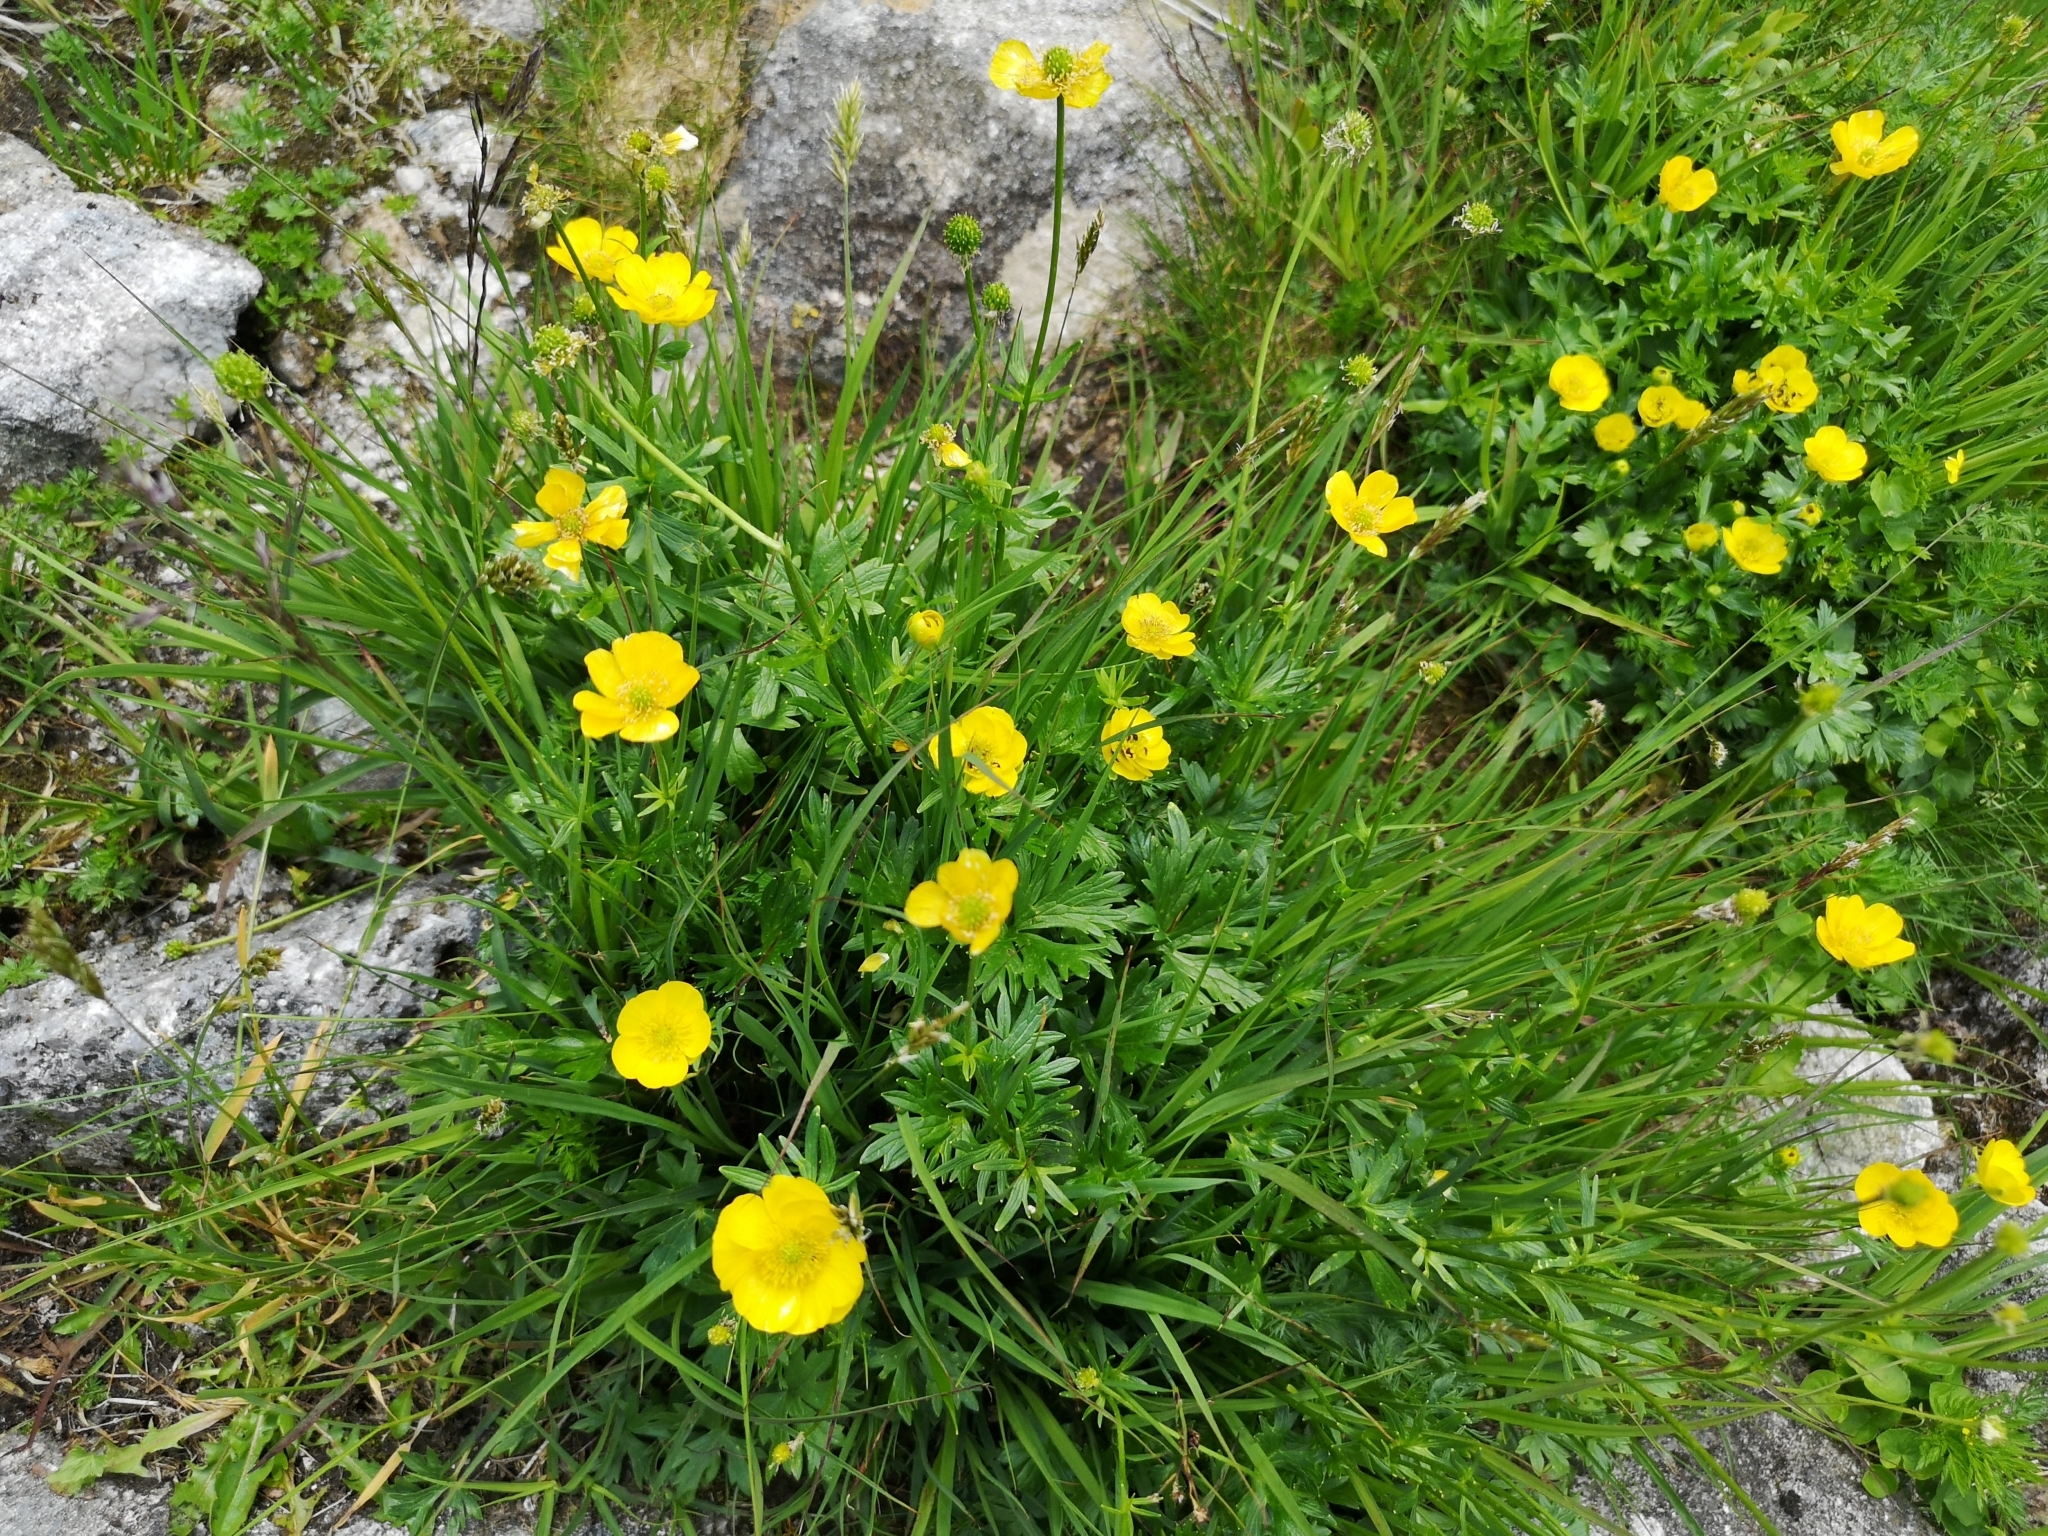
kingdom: Plantae
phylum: Tracheophyta
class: Magnoliopsida
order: Ranunculales
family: Ranunculaceae
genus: Ranunculus
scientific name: Ranunculus pseudomontanus
